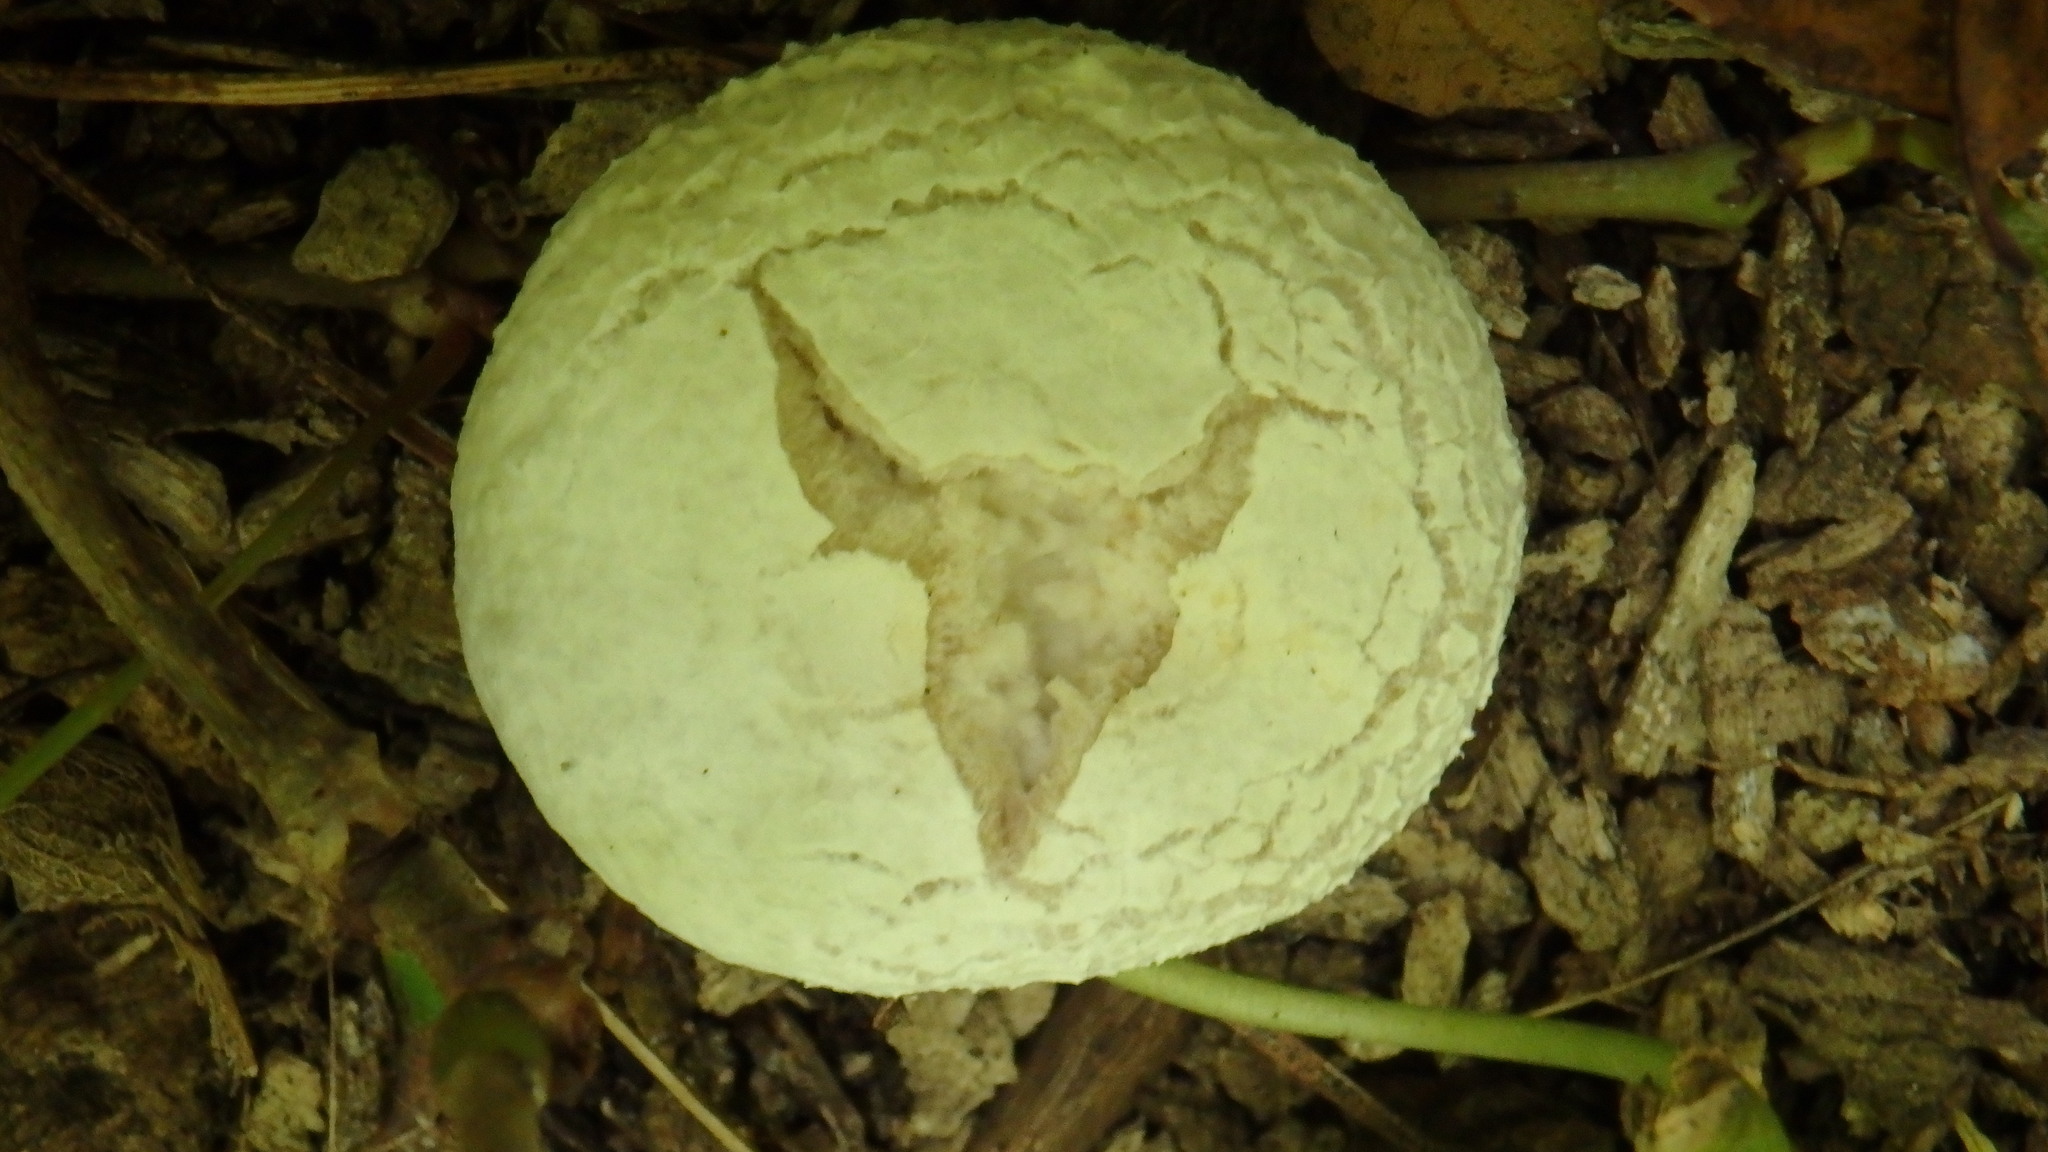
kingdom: Fungi
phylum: Basidiomycota
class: Agaricomycetes
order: Agaricales
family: Entolomataceae
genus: Entoloma
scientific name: Entoloma abortivum
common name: Aborted entoloma
